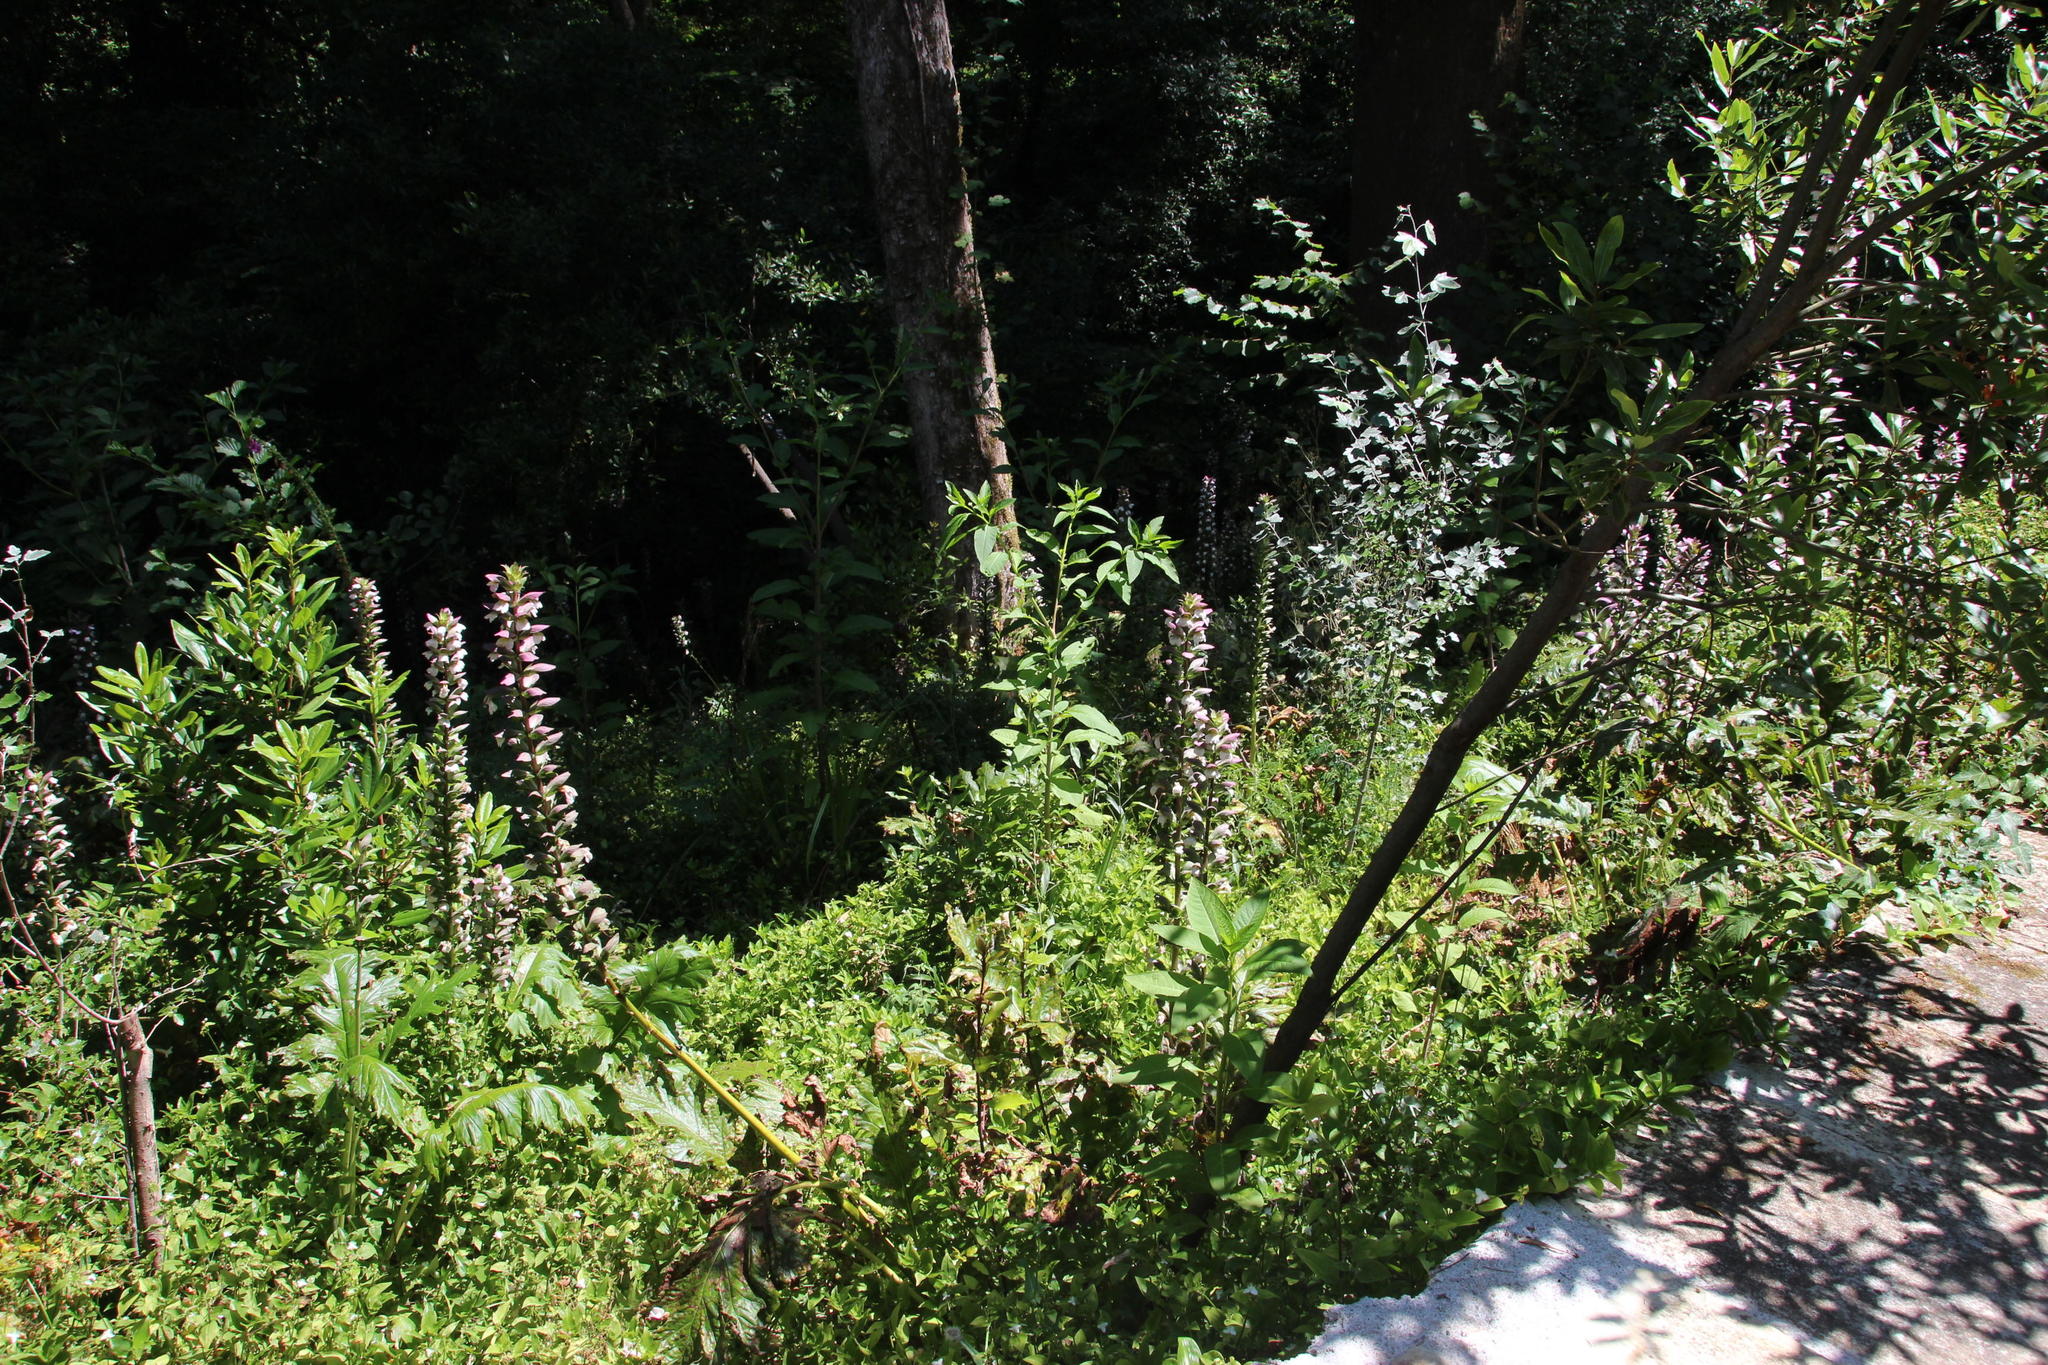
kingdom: Plantae
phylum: Tracheophyta
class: Magnoliopsida
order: Lamiales
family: Acanthaceae
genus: Acanthus
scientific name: Acanthus mollis
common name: Bear's-breech
